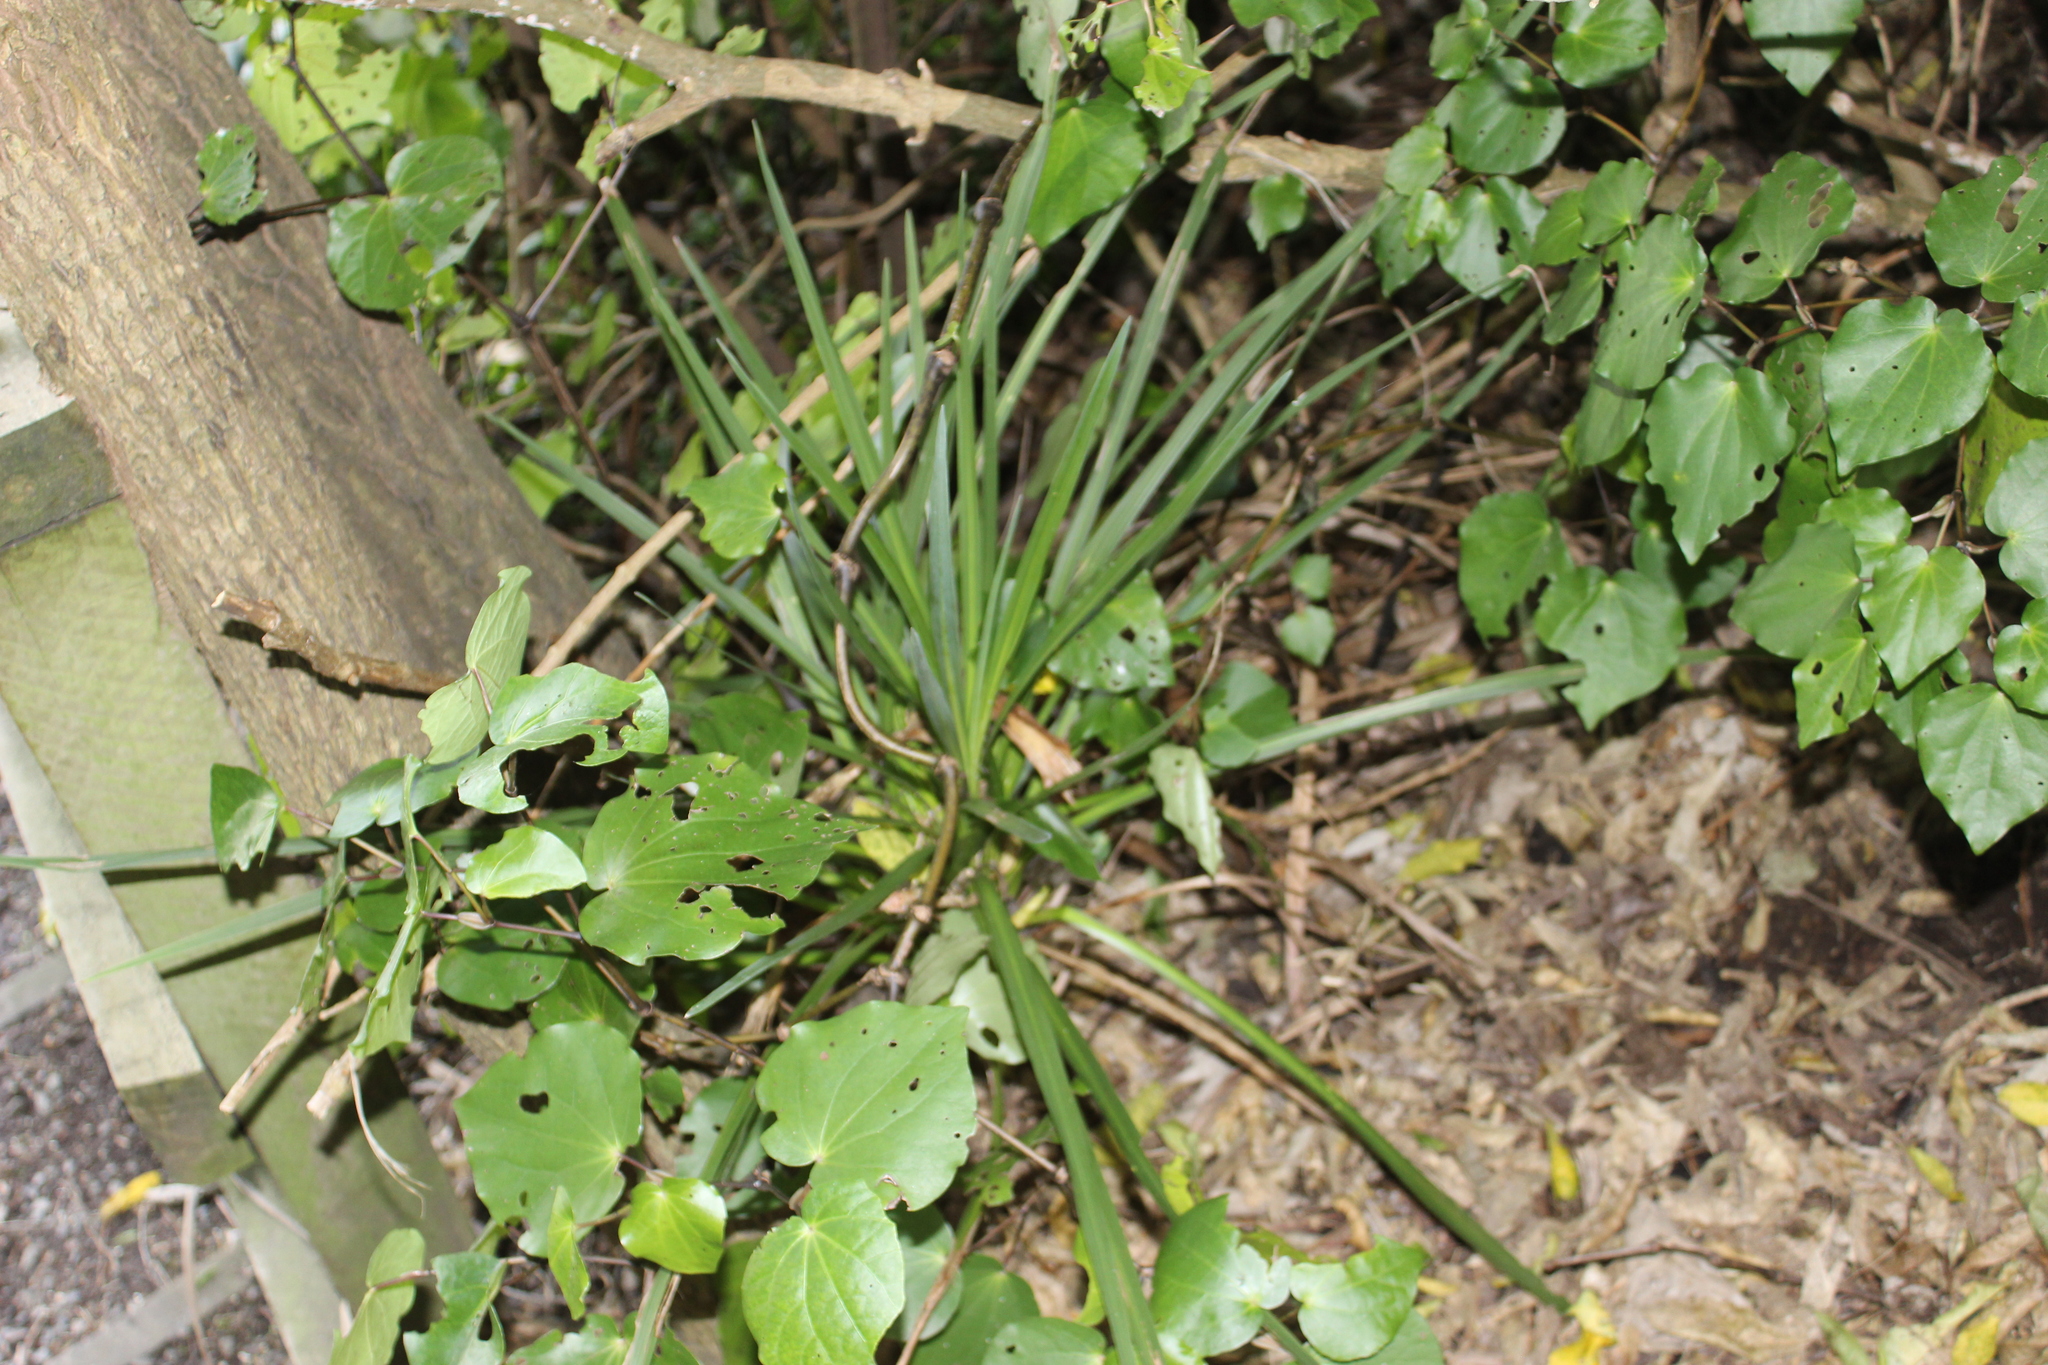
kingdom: Plantae
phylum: Tracheophyta
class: Liliopsida
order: Asparagales
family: Asparagaceae
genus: Cordyline
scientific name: Cordyline australis
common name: Cabbage-palm
